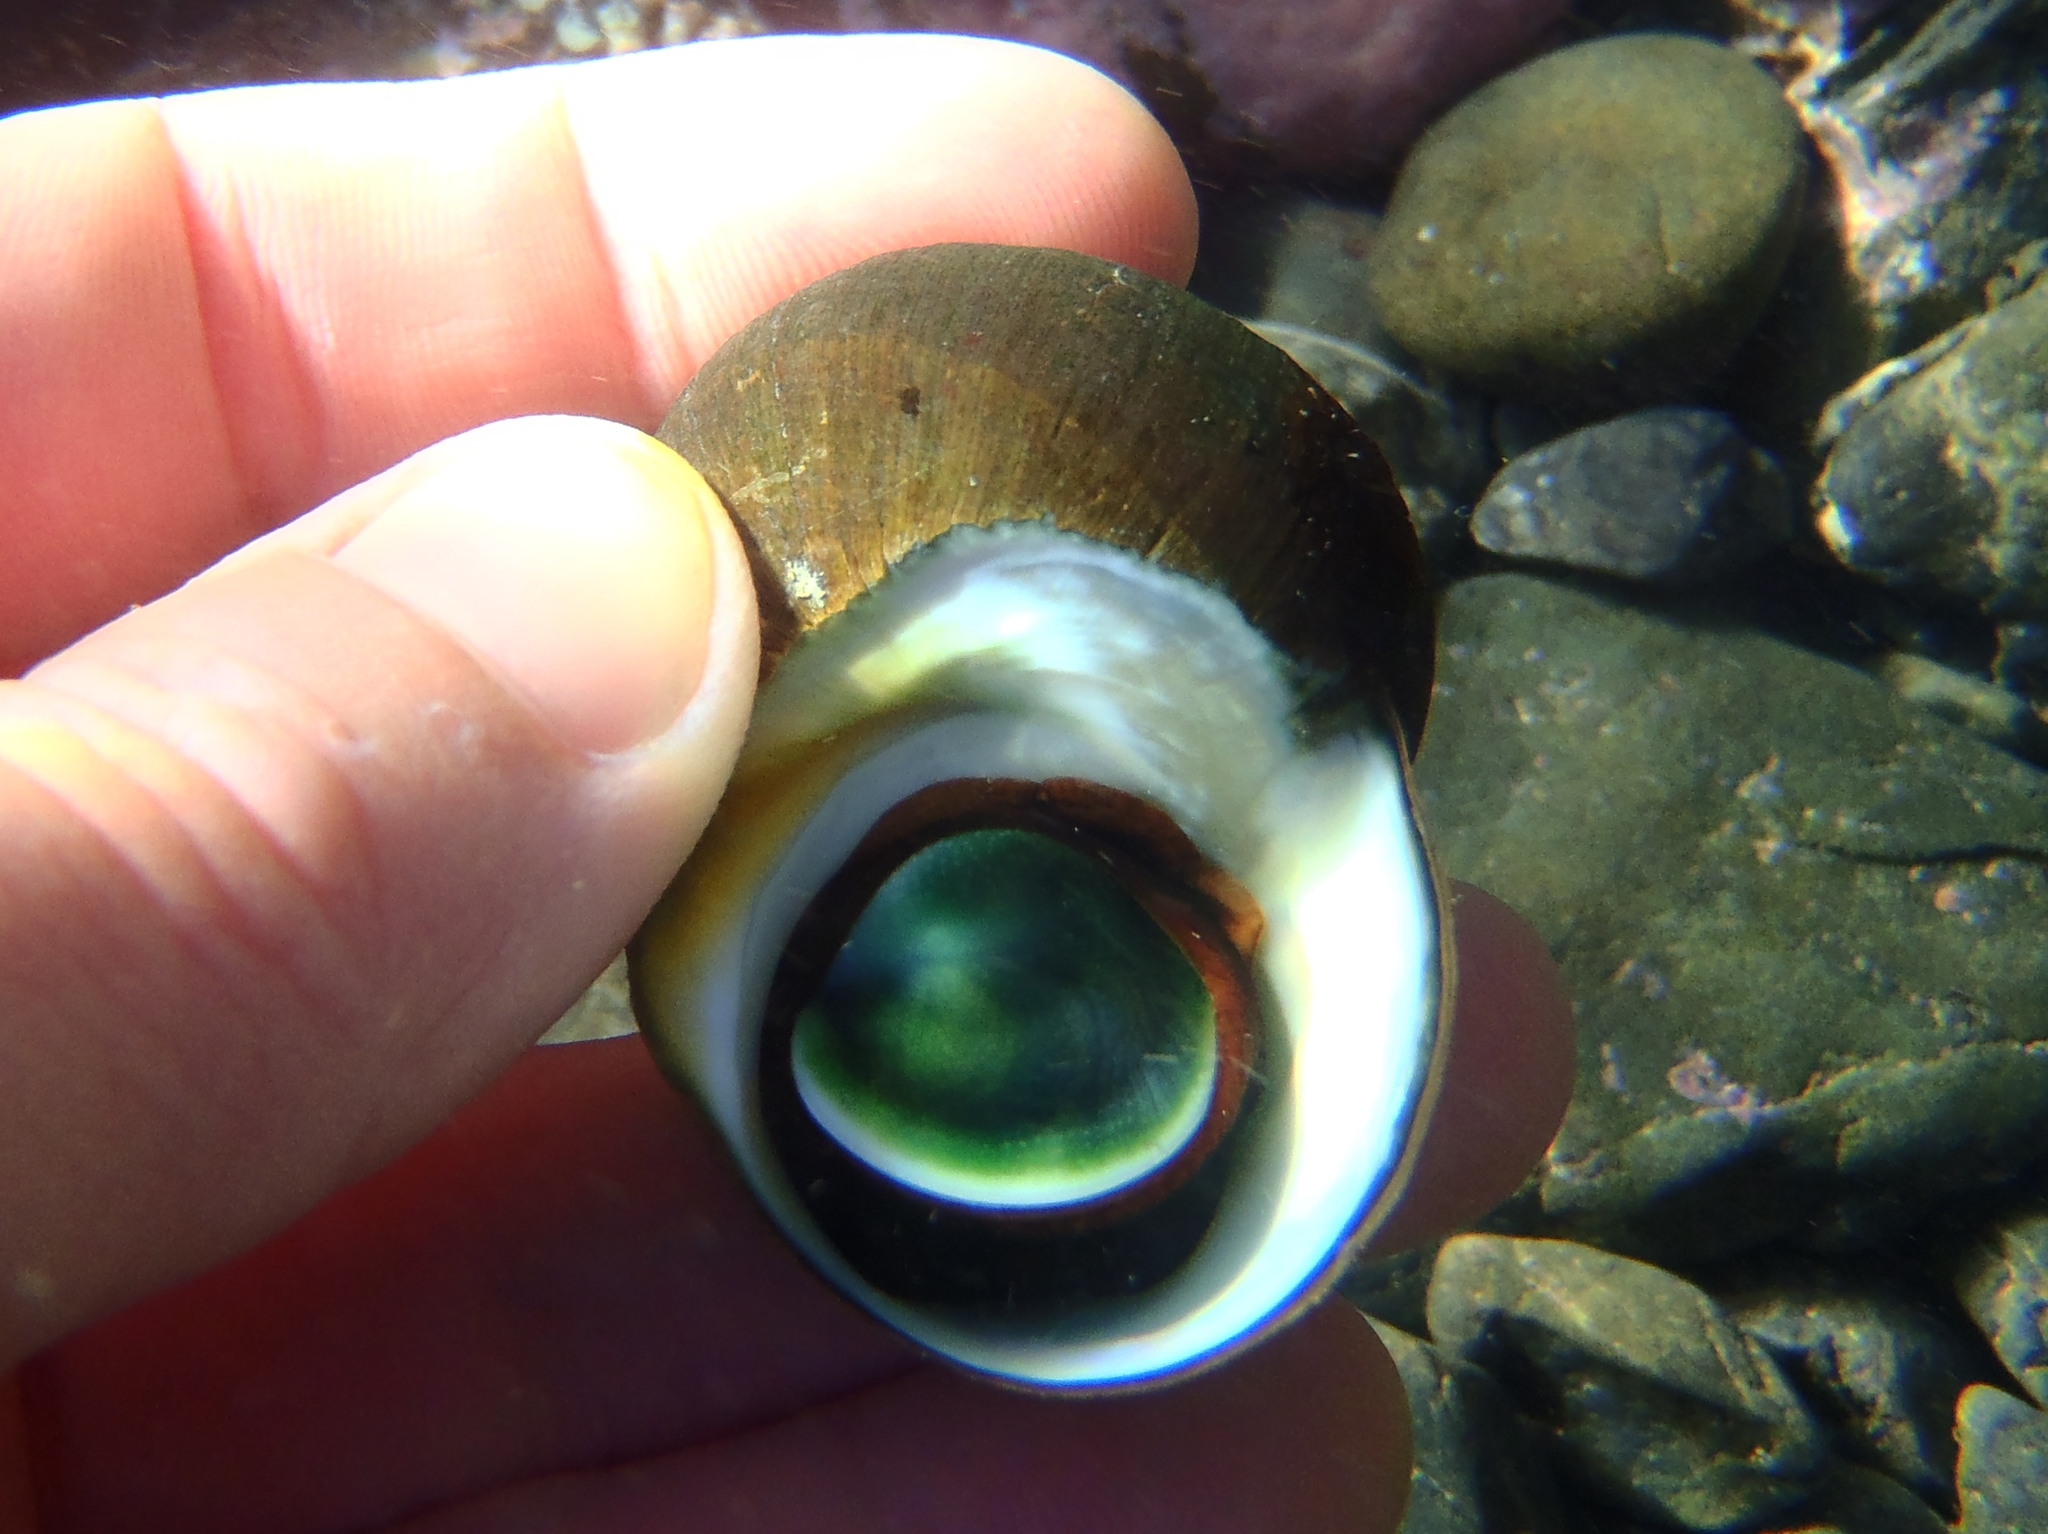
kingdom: Animalia
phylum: Mollusca
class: Gastropoda
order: Trochida
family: Turbinidae
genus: Lunella
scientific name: Lunella smaragda
